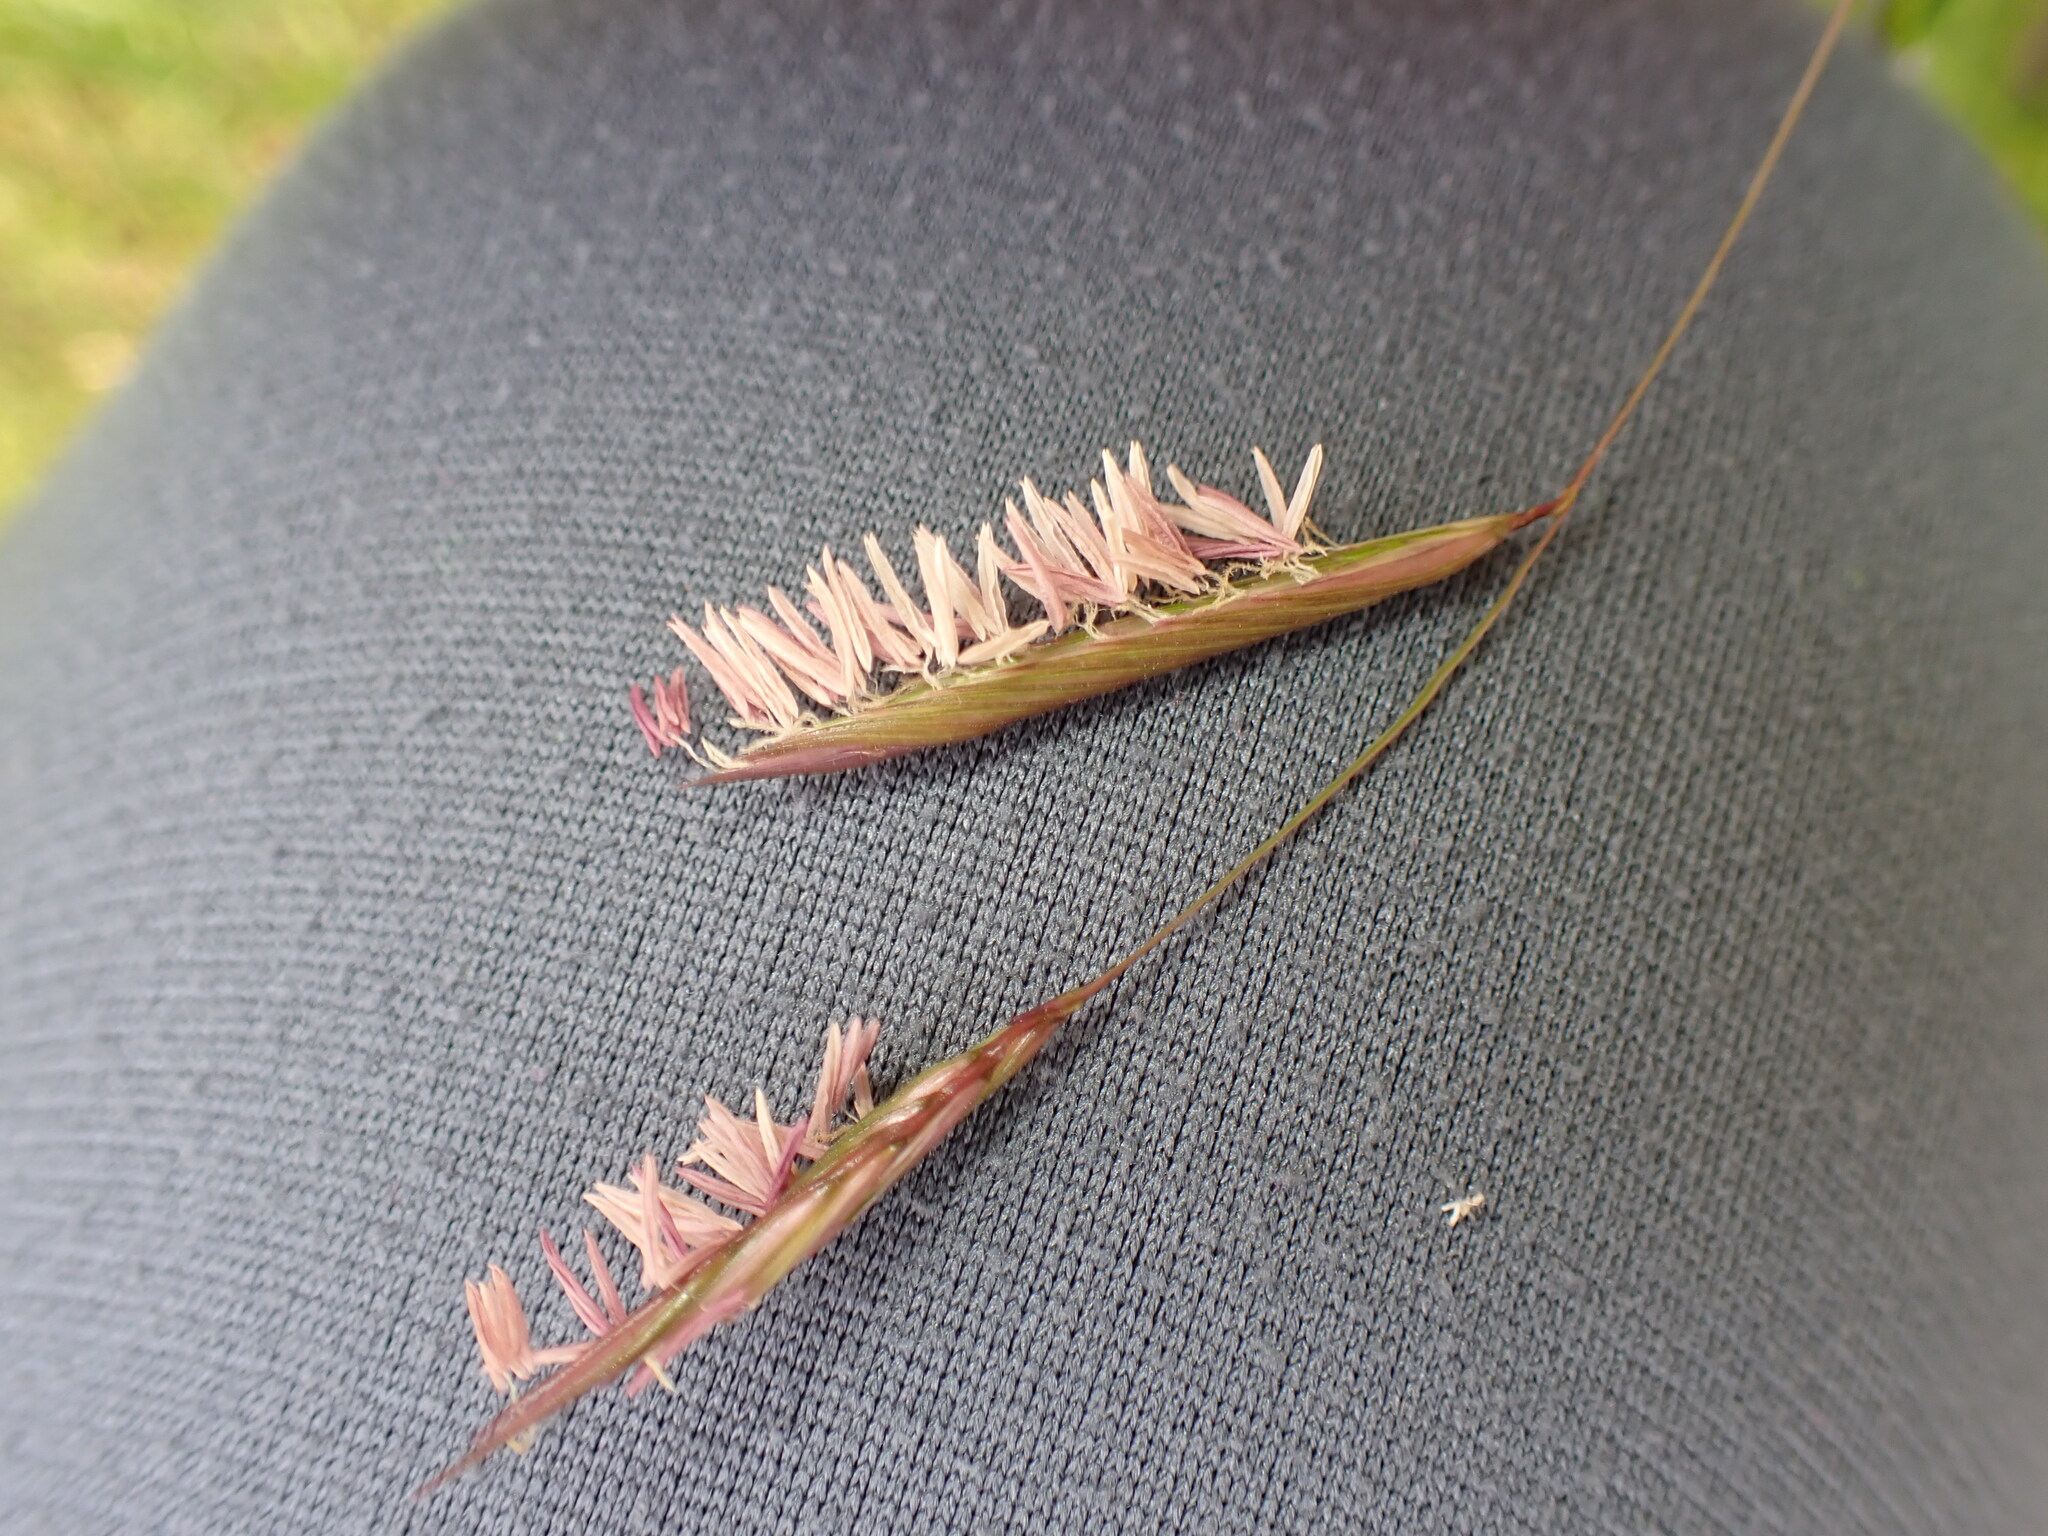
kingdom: Plantae
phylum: Tracheophyta
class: Liliopsida
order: Poales
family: Poaceae
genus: Sporobolus
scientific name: Sporobolus pumilus
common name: Highwater grass
